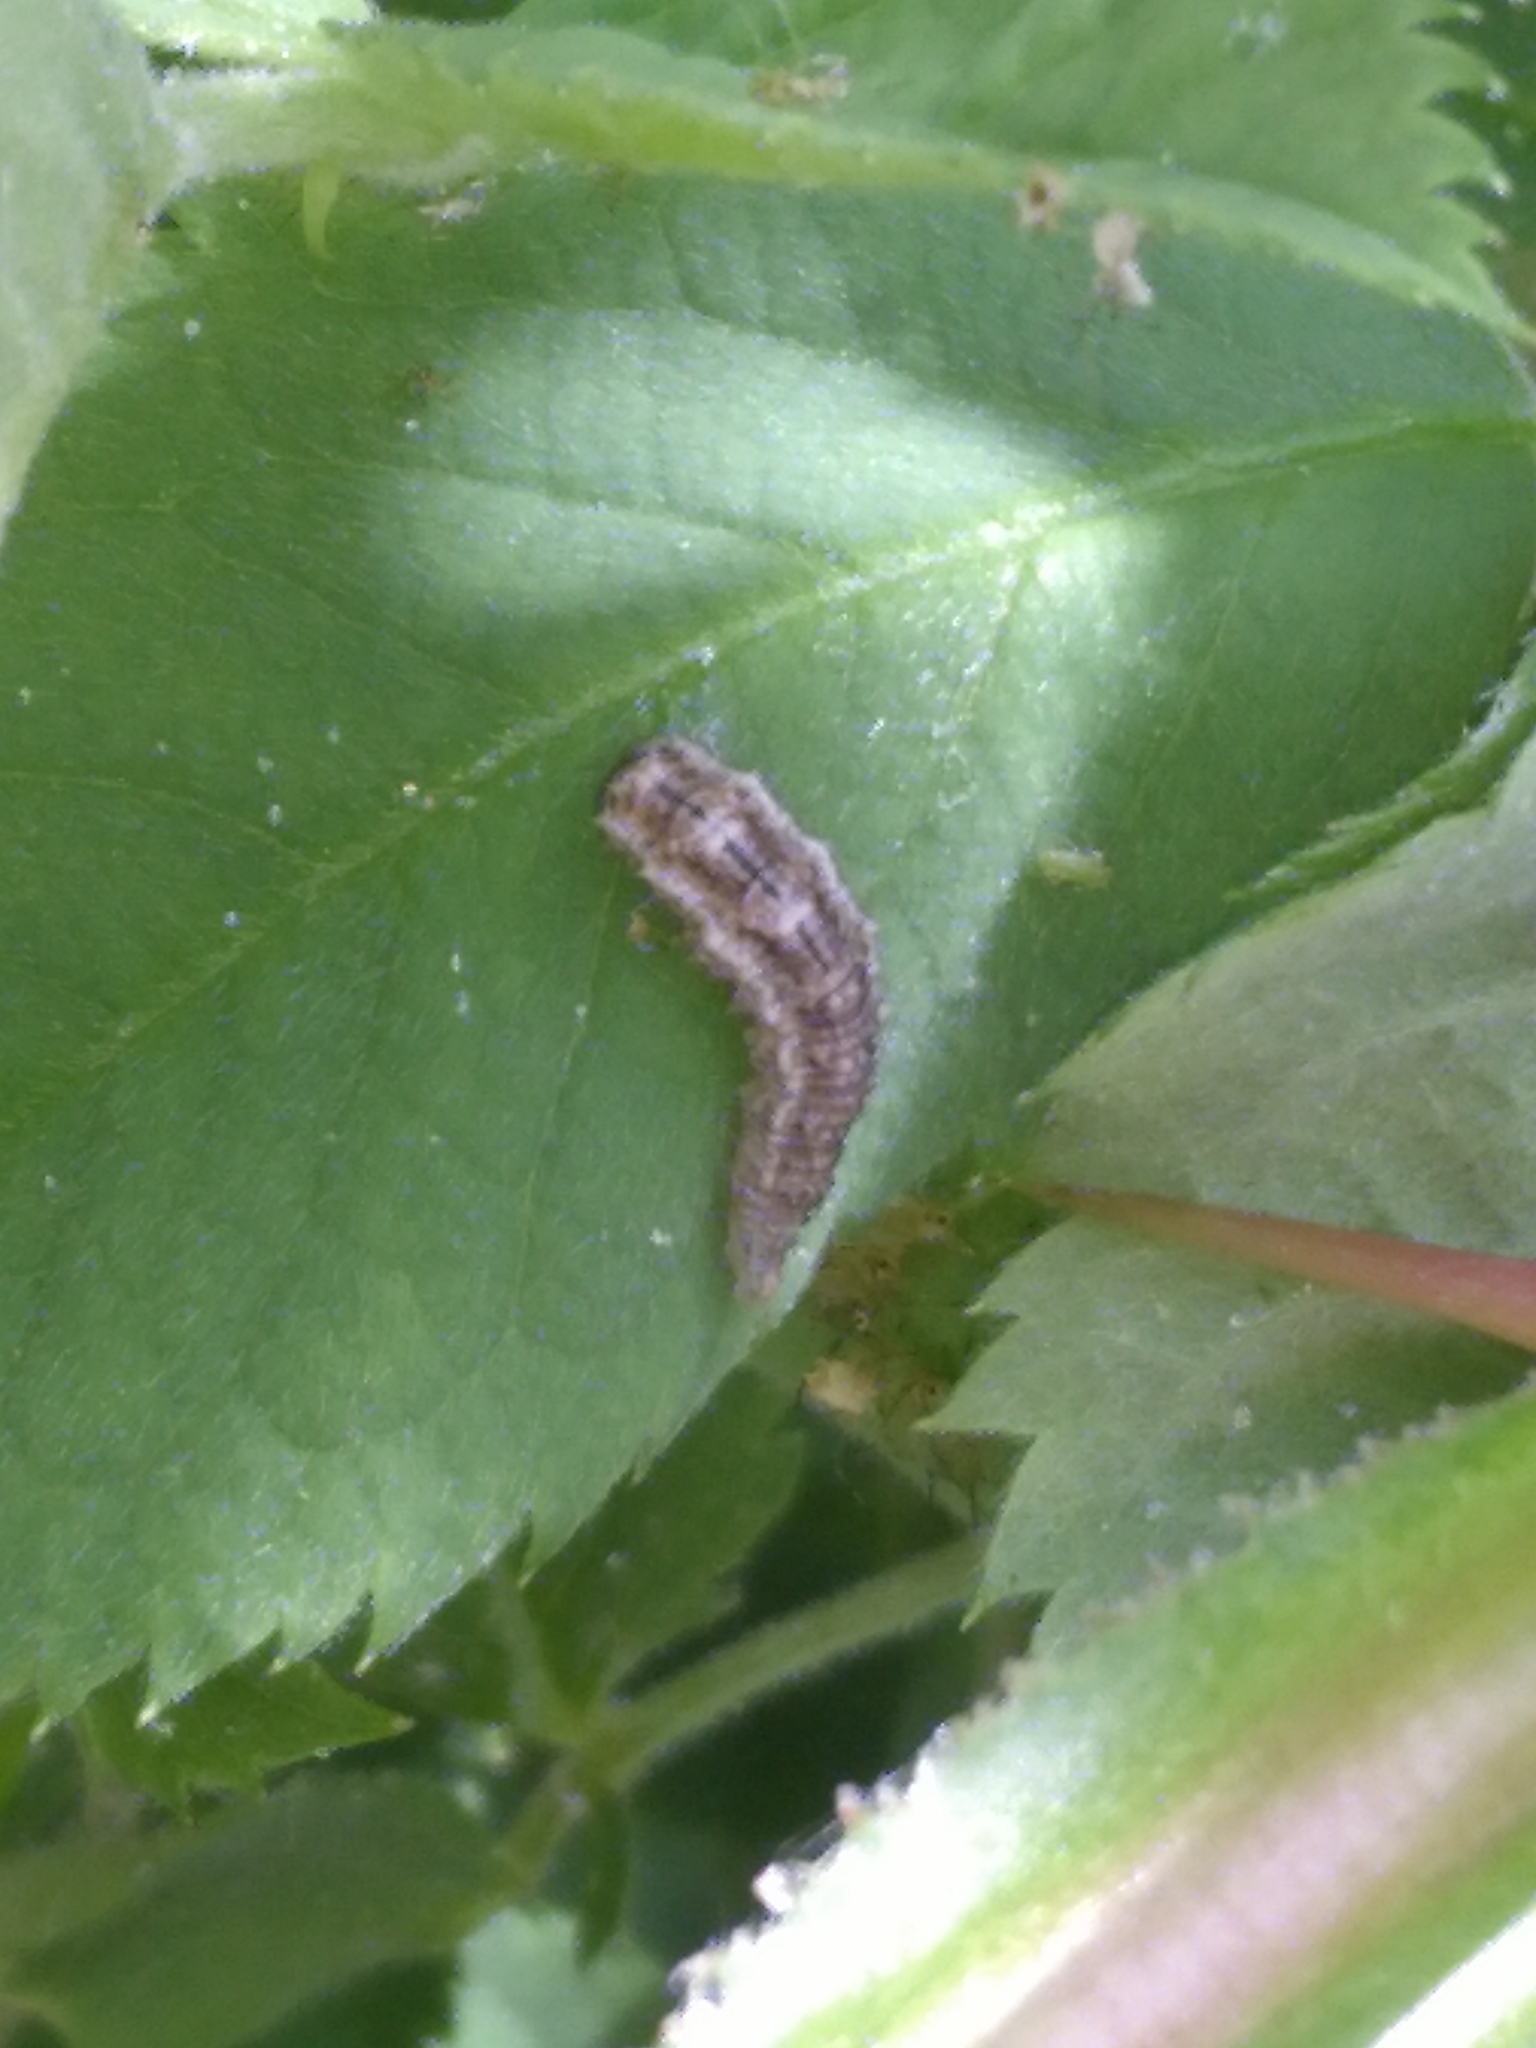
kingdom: Animalia
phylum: Arthropoda
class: Insecta
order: Diptera
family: Syrphidae
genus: Eupeodes
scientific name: Eupeodes
